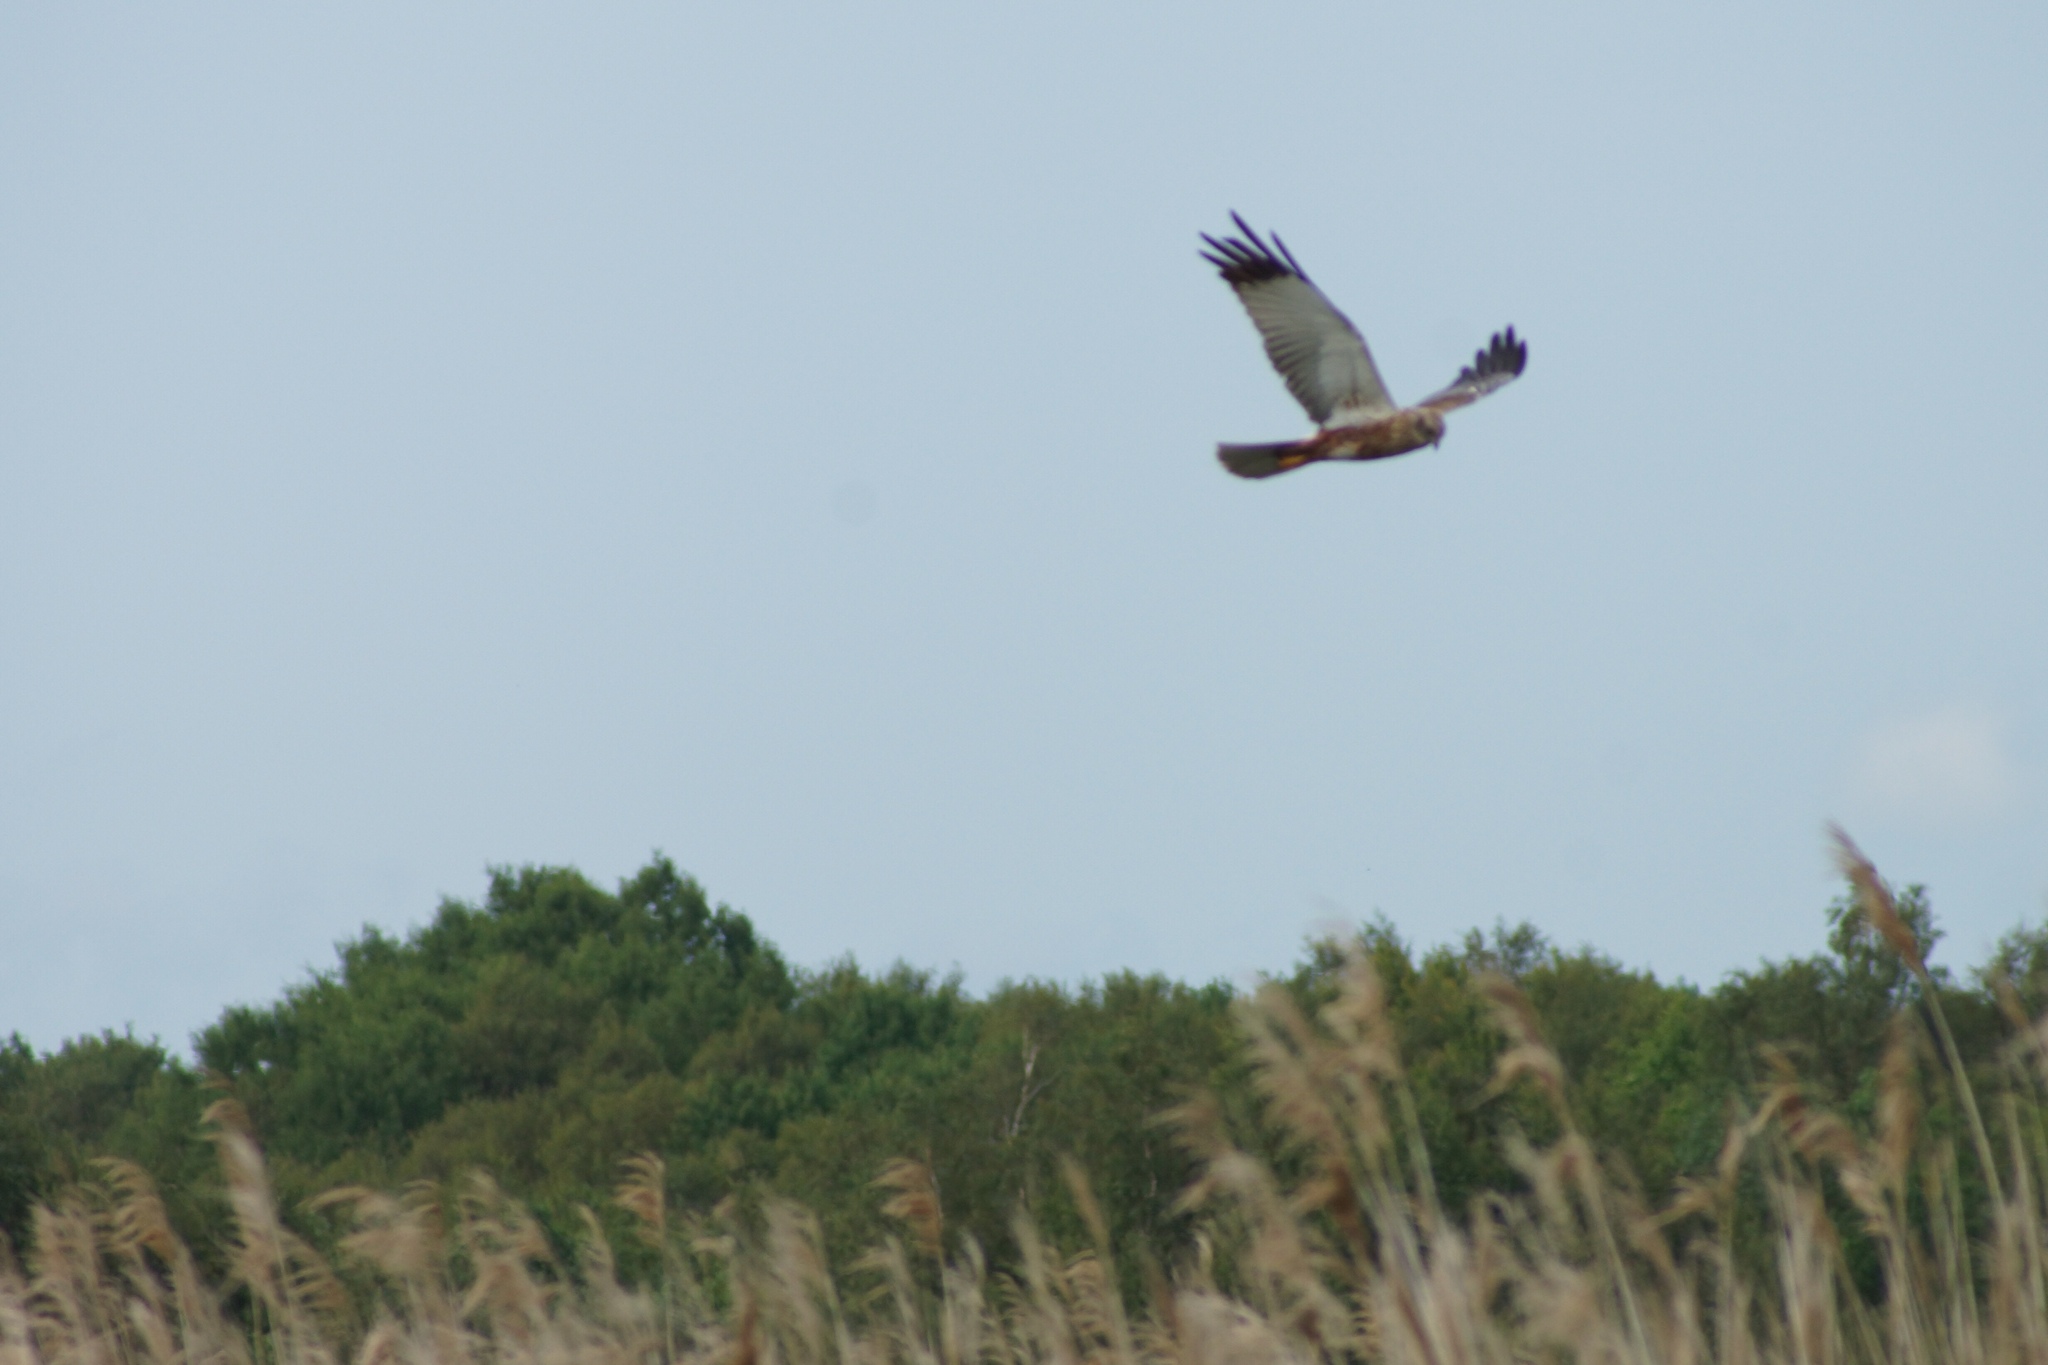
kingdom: Animalia
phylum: Chordata
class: Aves
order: Accipitriformes
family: Accipitridae
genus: Circus
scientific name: Circus aeruginosus
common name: Western marsh harrier
